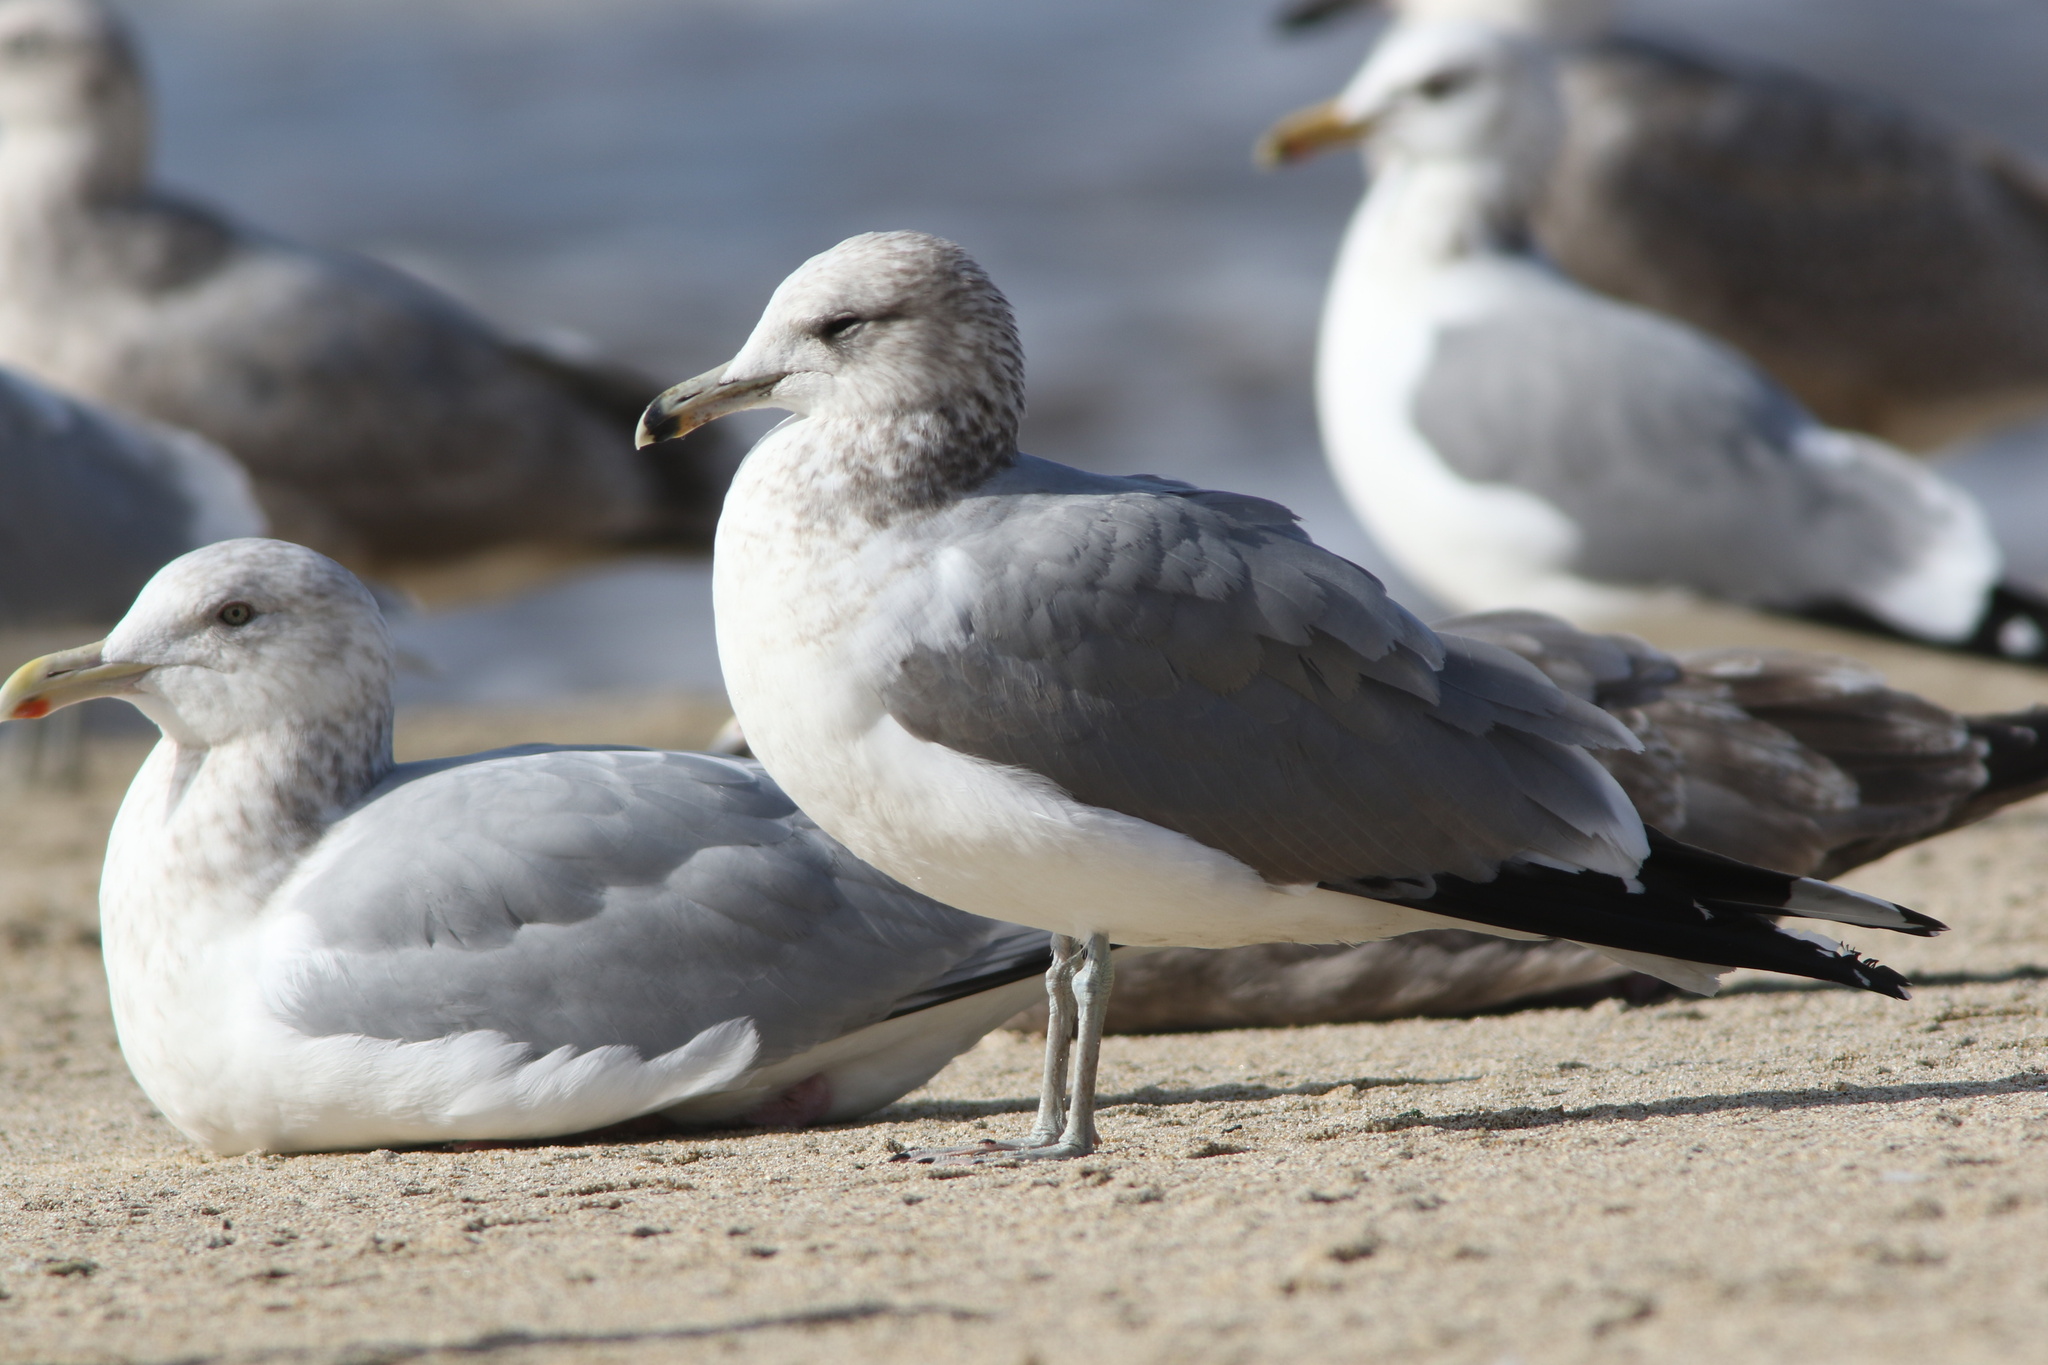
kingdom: Animalia
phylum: Chordata
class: Aves
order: Charadriiformes
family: Laridae
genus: Larus
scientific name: Larus californicus
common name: California gull
